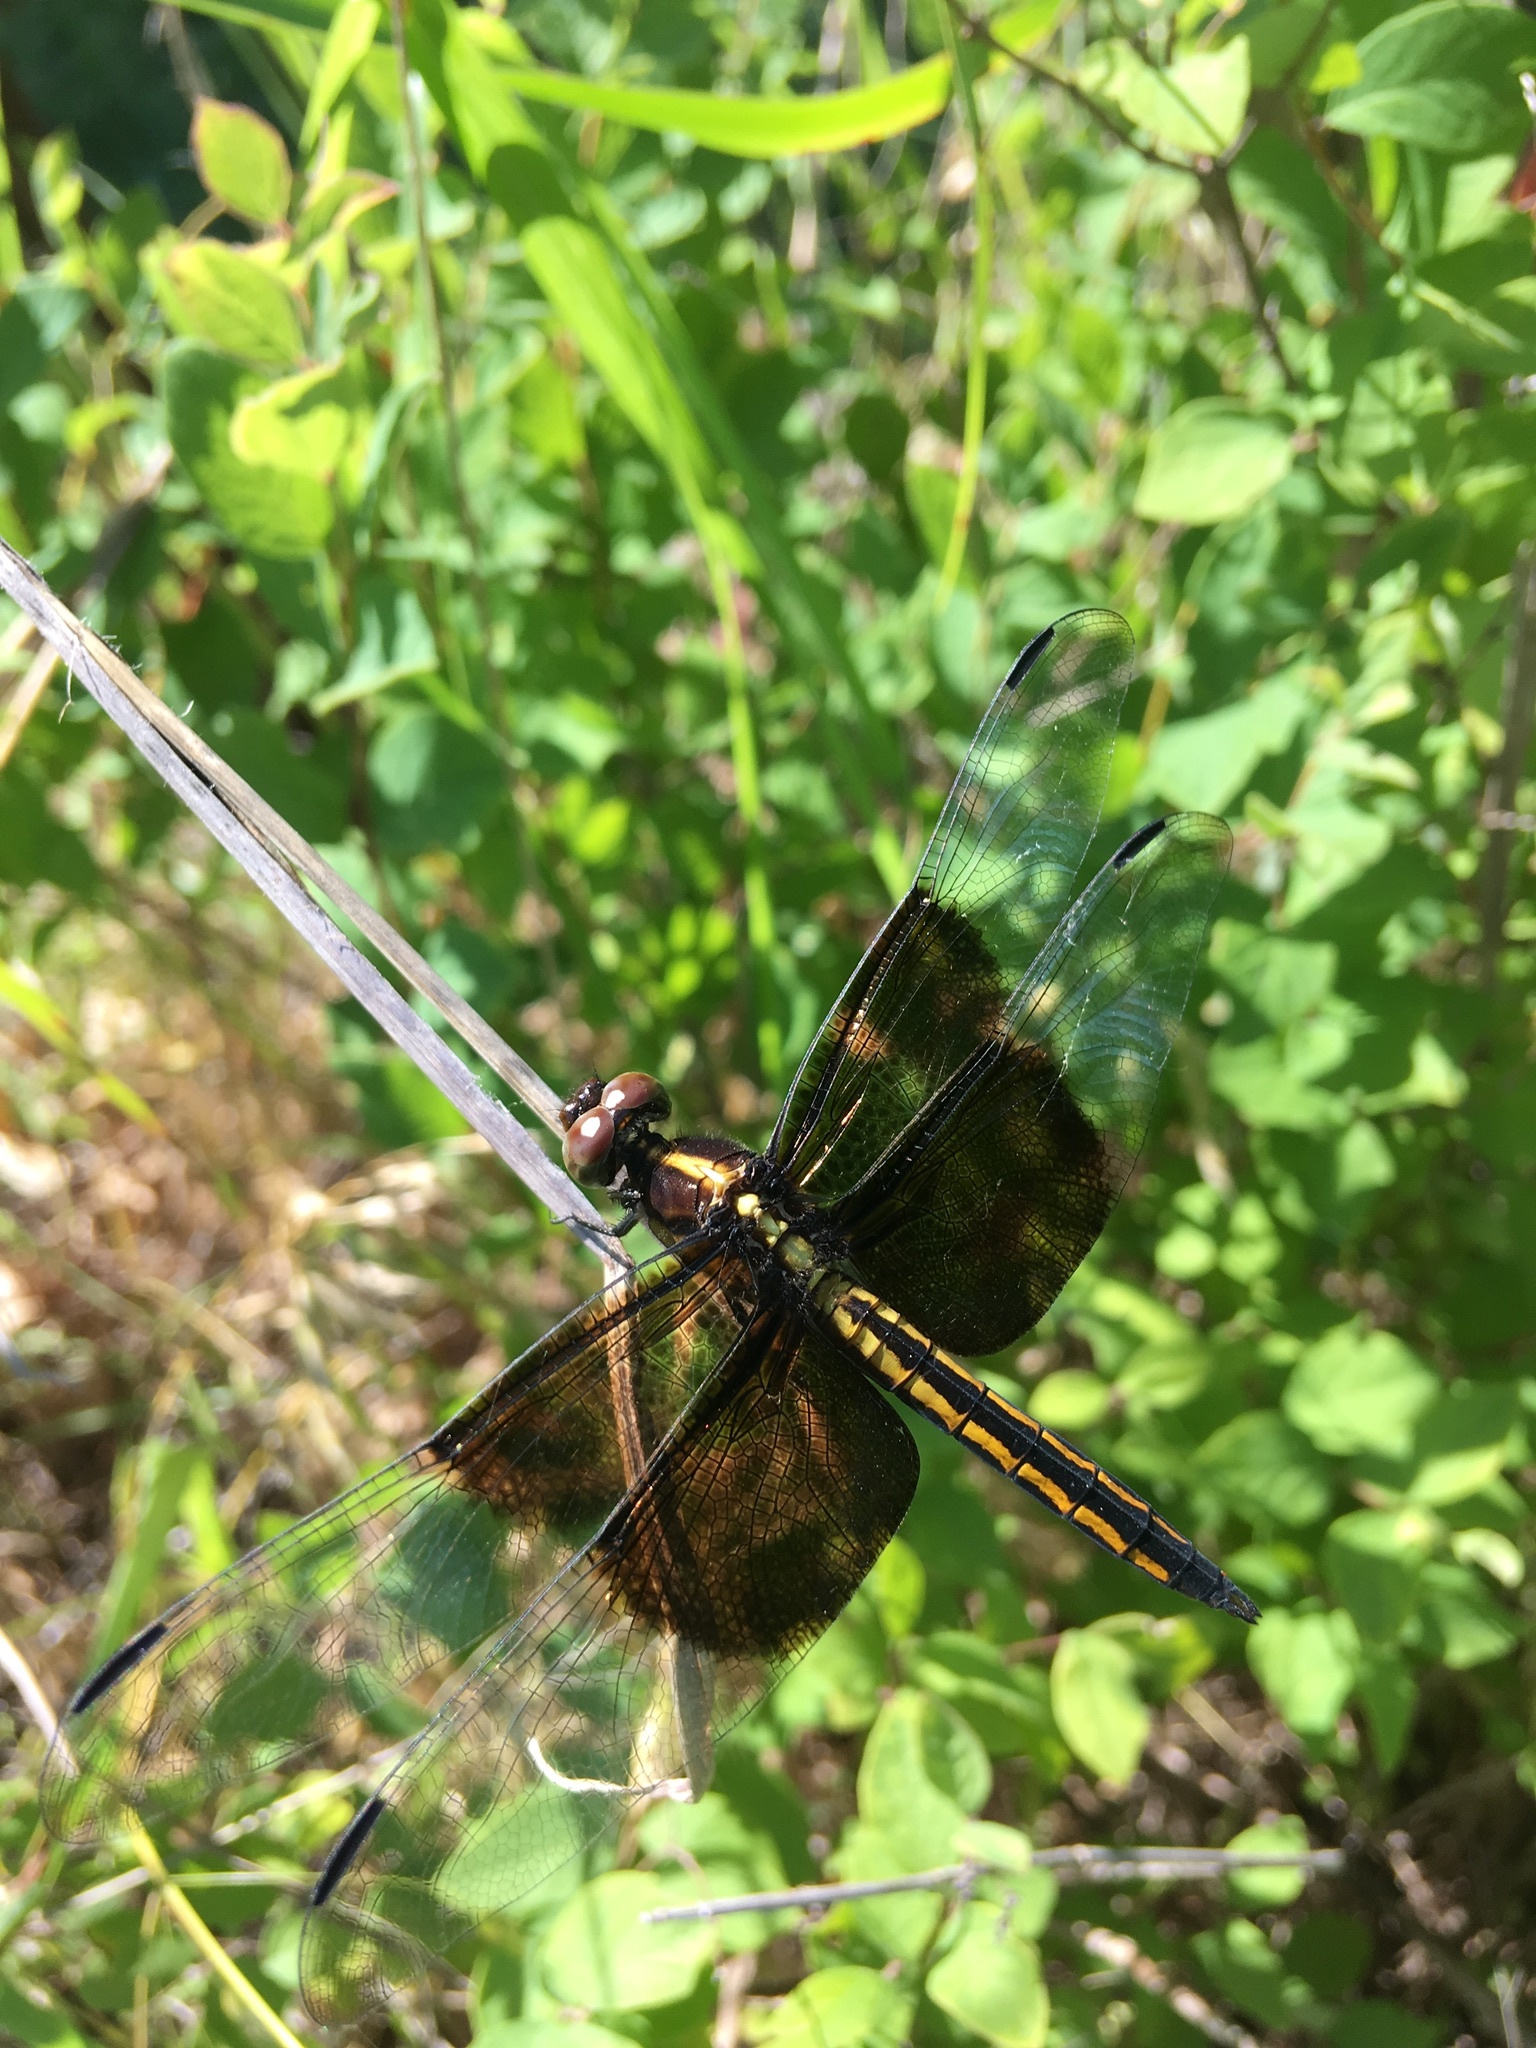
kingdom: Animalia
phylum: Arthropoda
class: Insecta
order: Odonata
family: Libellulidae
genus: Libellula
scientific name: Libellula luctuosa
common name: Widow skimmer
